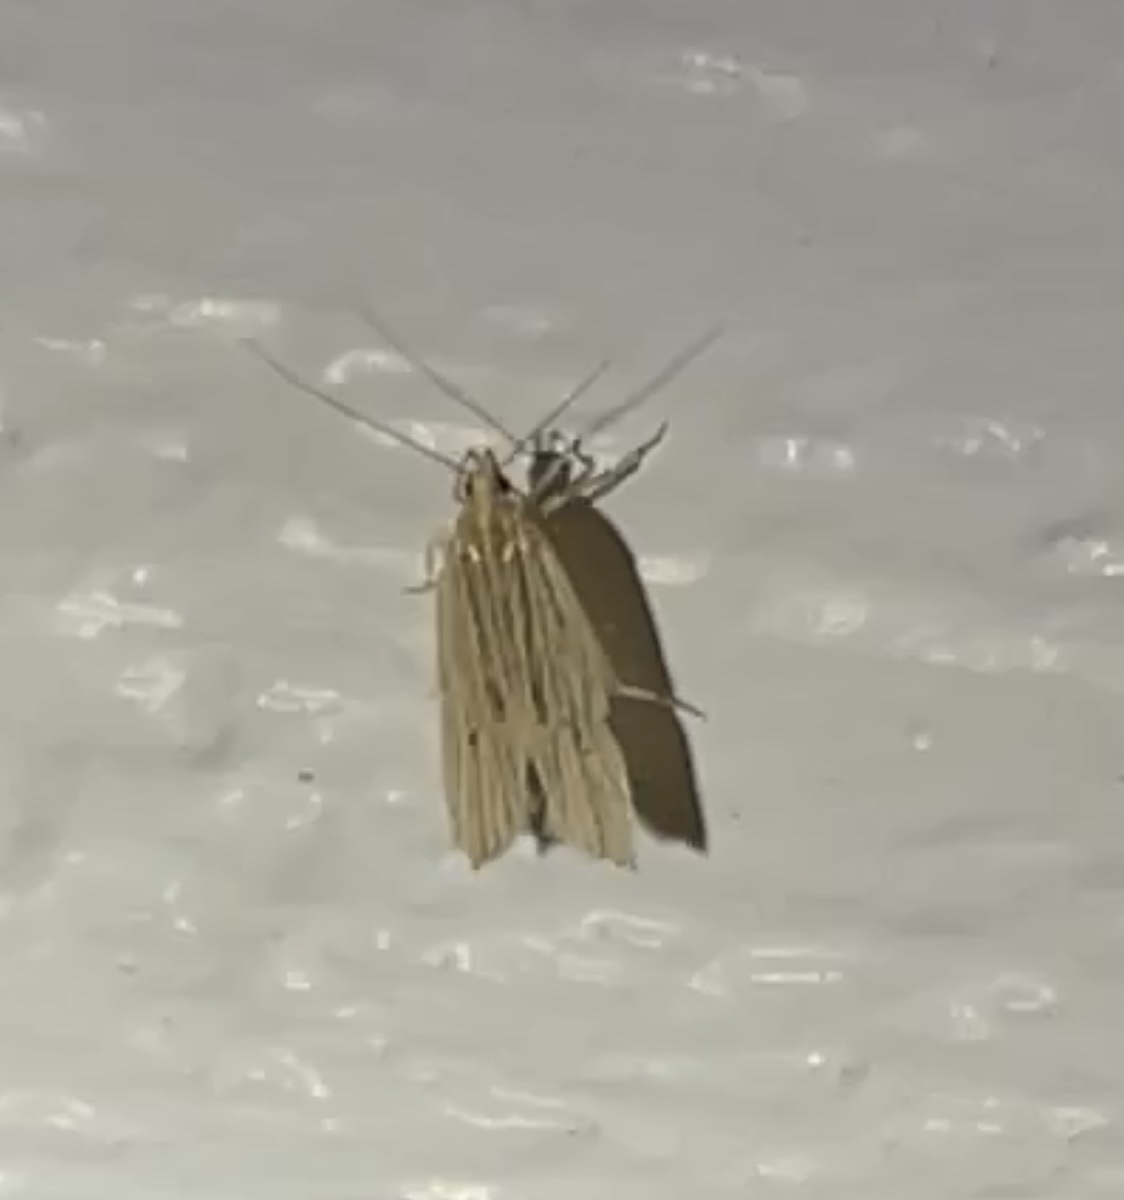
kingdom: Animalia
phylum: Arthropoda
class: Insecta
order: Lepidoptera
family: Gelechiidae
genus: Helcystogramma
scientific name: Helcystogramma hystricella
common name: Lanceolate moth
